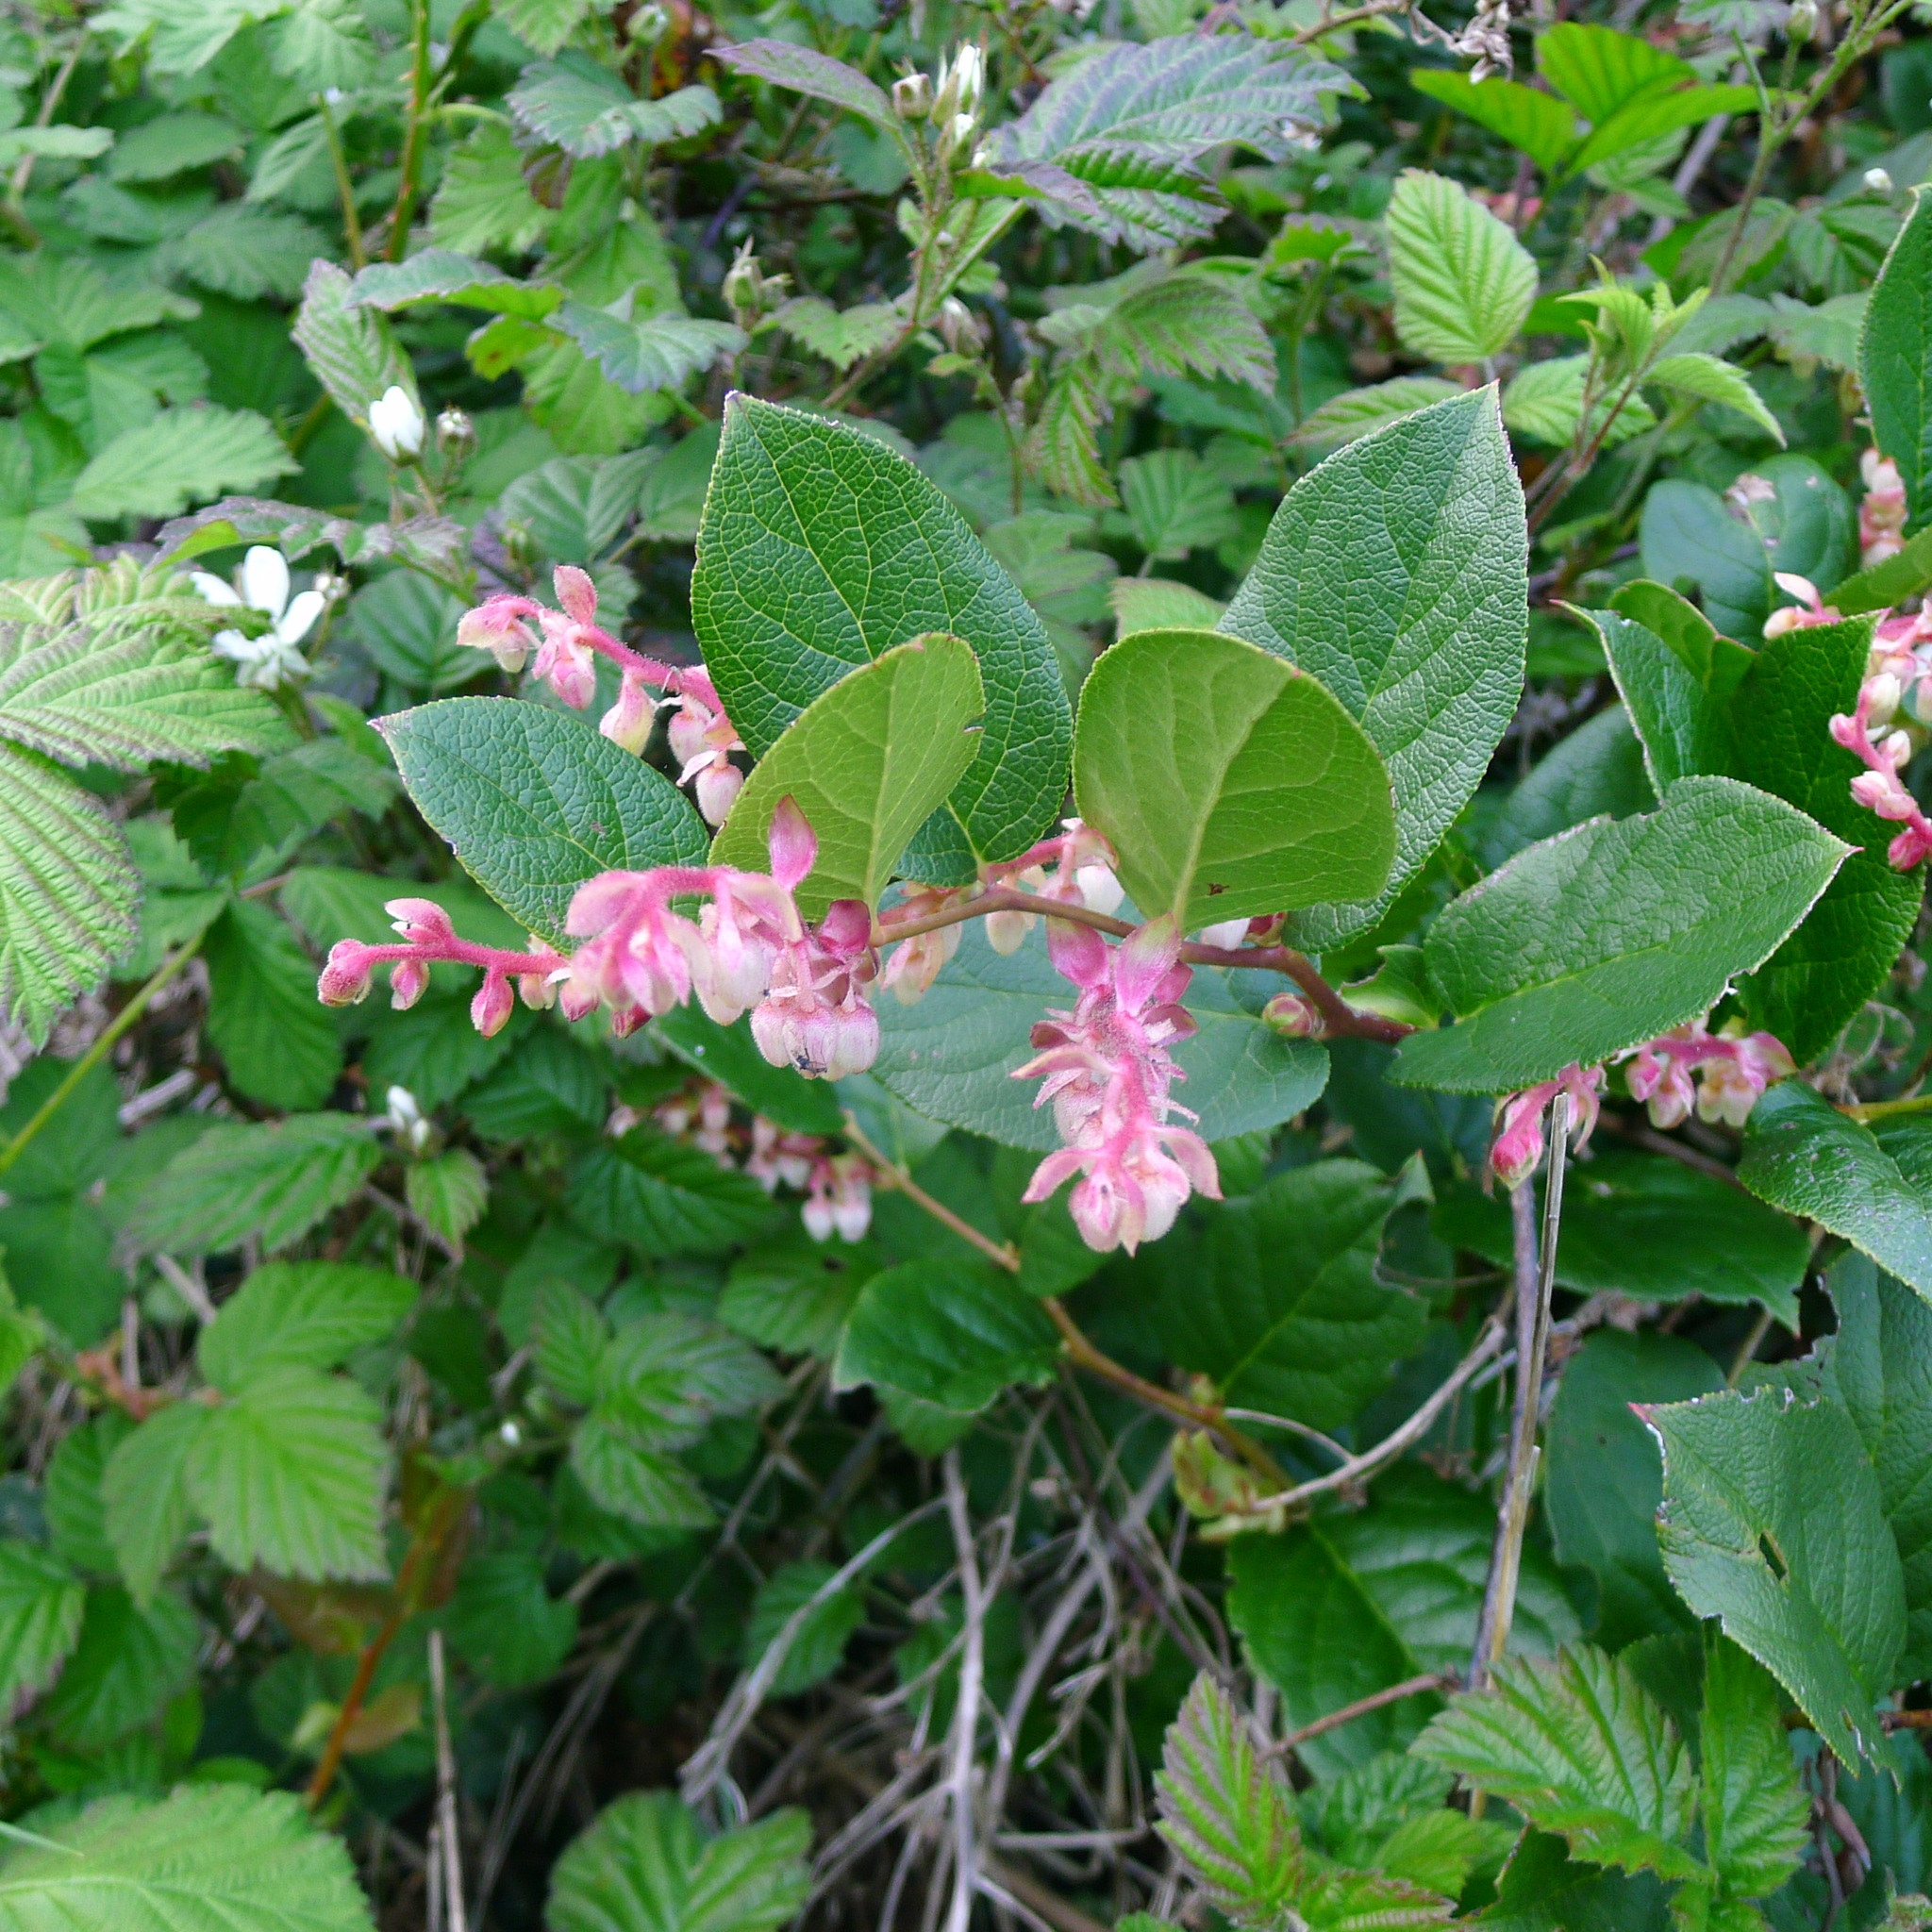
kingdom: Plantae
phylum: Tracheophyta
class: Magnoliopsida
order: Ericales
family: Ericaceae
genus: Gaultheria
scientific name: Gaultheria shallon
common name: Shallon
